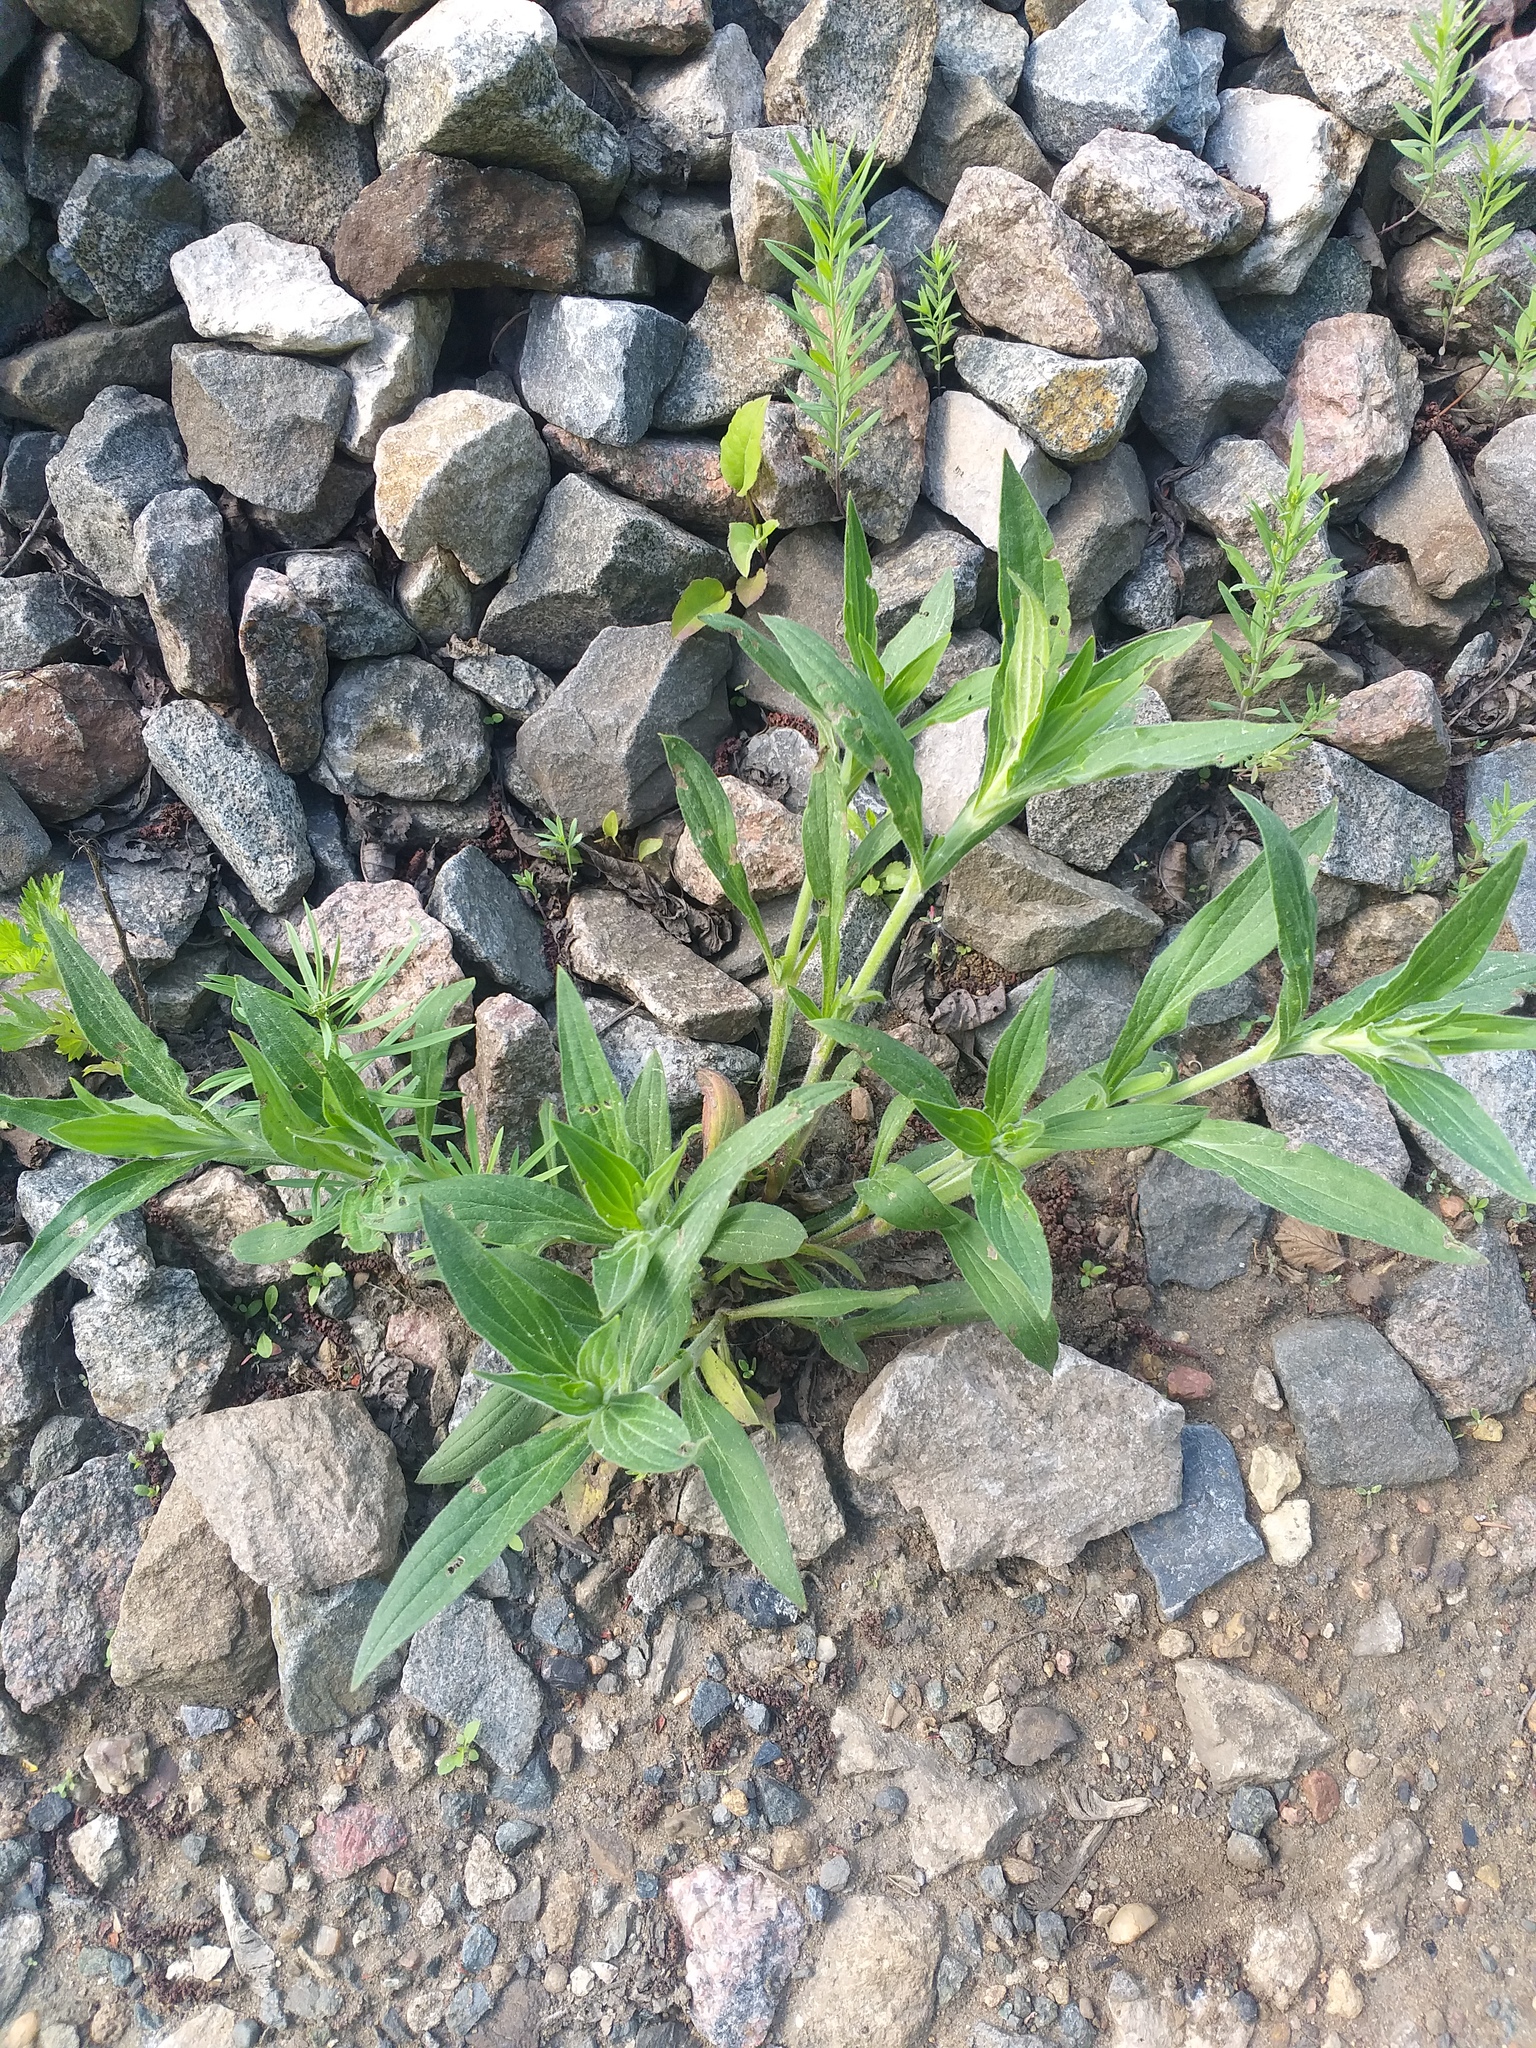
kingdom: Plantae
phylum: Tracheophyta
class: Magnoliopsida
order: Caryophyllales
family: Caryophyllaceae
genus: Silene
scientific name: Silene latifolia
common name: White campion
